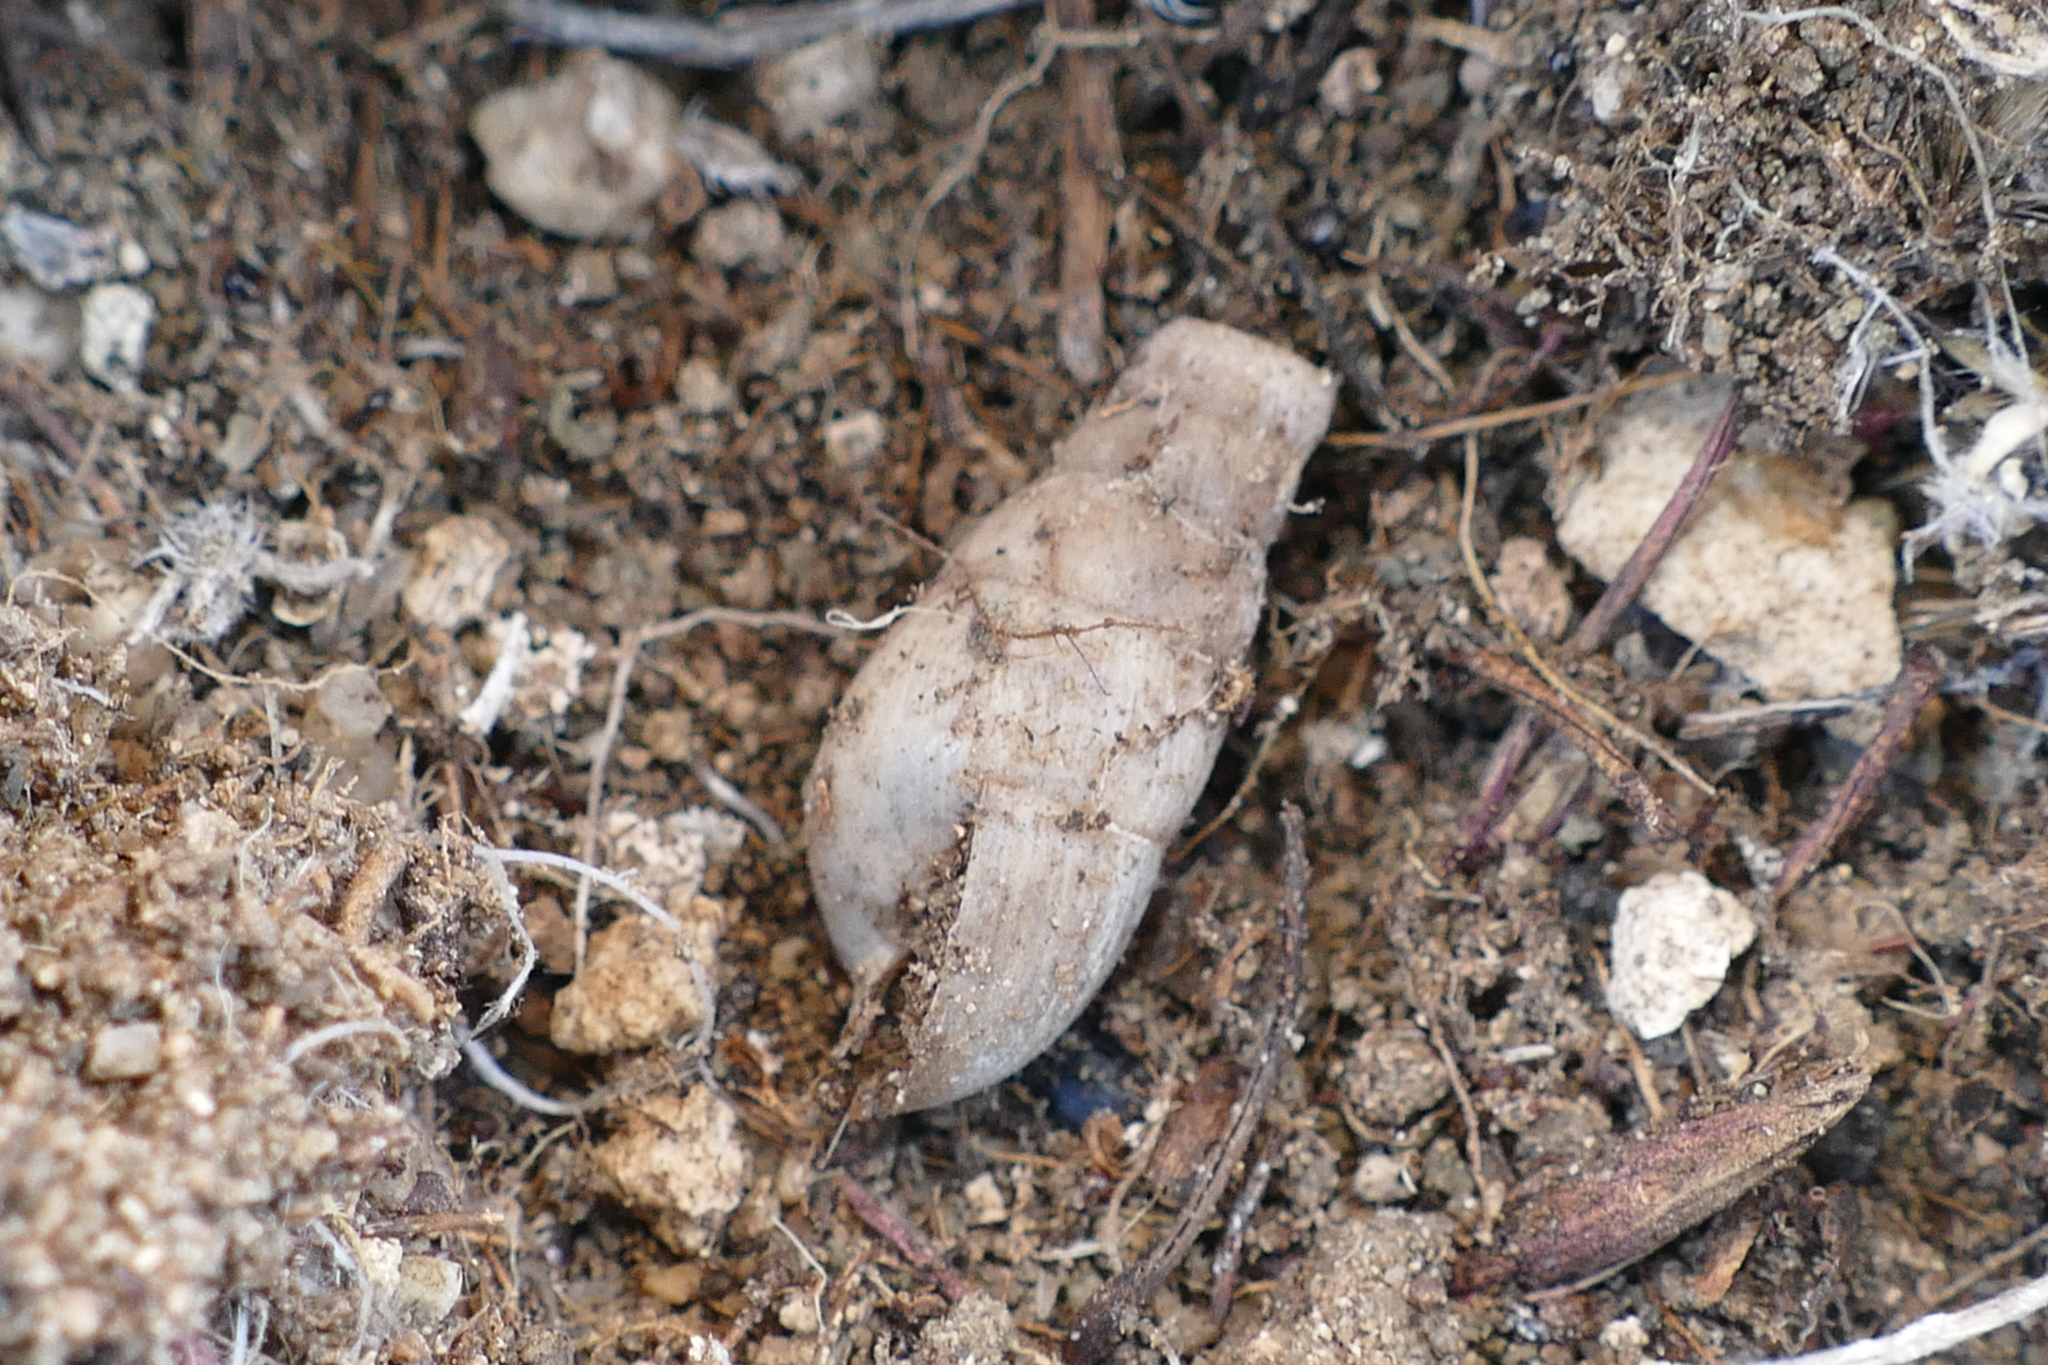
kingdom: Animalia
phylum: Mollusca
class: Gastropoda
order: Stylommatophora
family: Achatinidae
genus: Rumina
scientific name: Rumina decollata
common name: Decollate snail
